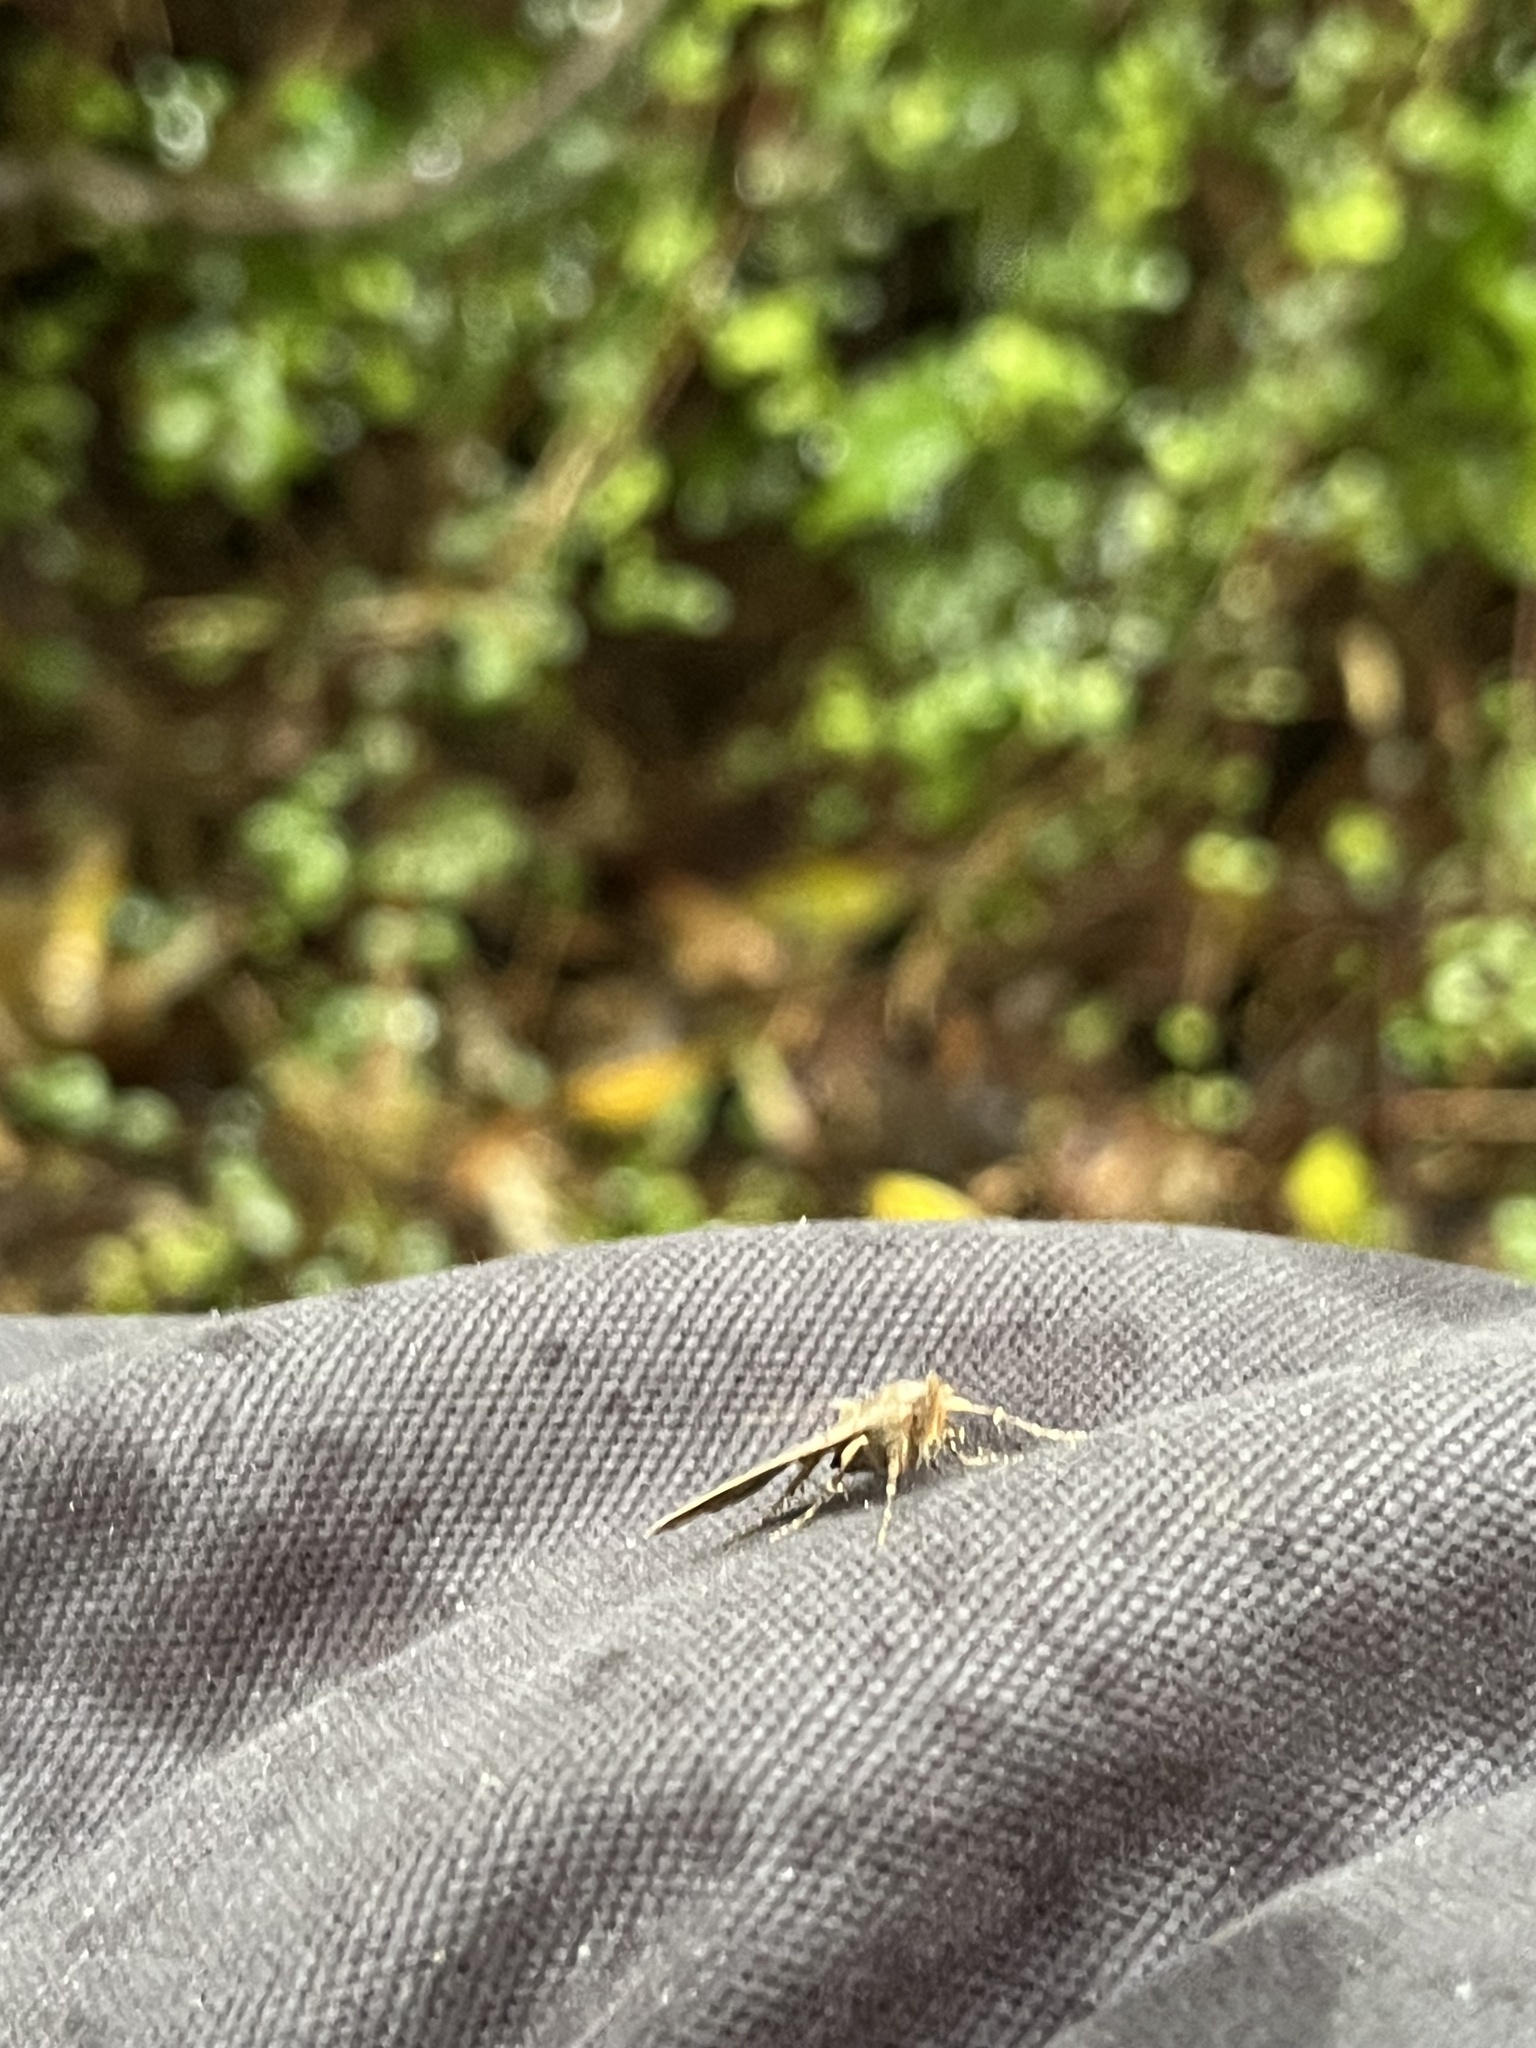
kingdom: Animalia
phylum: Arthropoda
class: Insecta
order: Lepidoptera
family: Erebidae
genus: Rhapsa
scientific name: Rhapsa scotosialis
